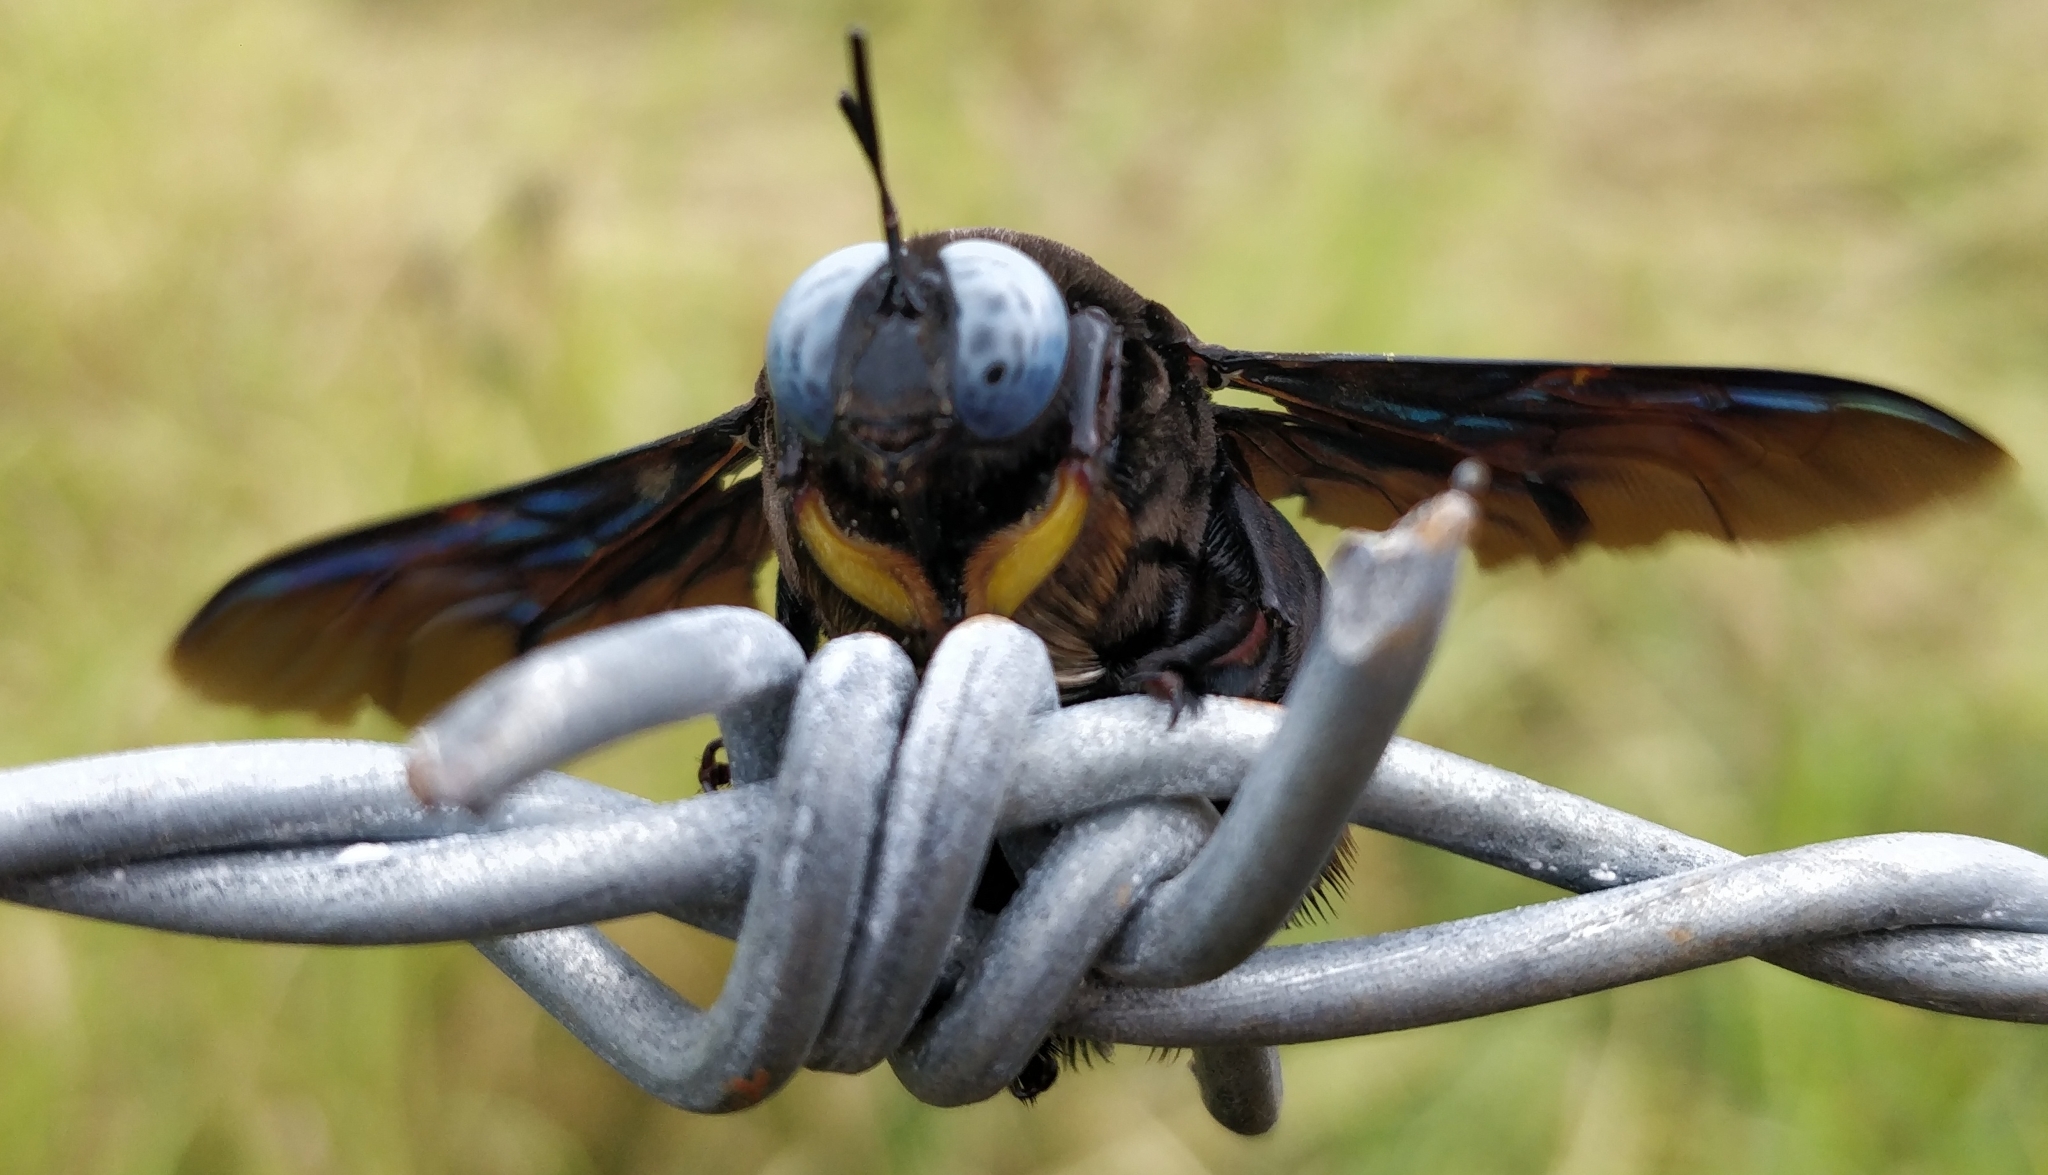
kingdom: Animalia
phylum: Arthropoda
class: Insecta
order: Hymenoptera
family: Apidae
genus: Xylocopa
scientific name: Xylocopa tenuiscapa
